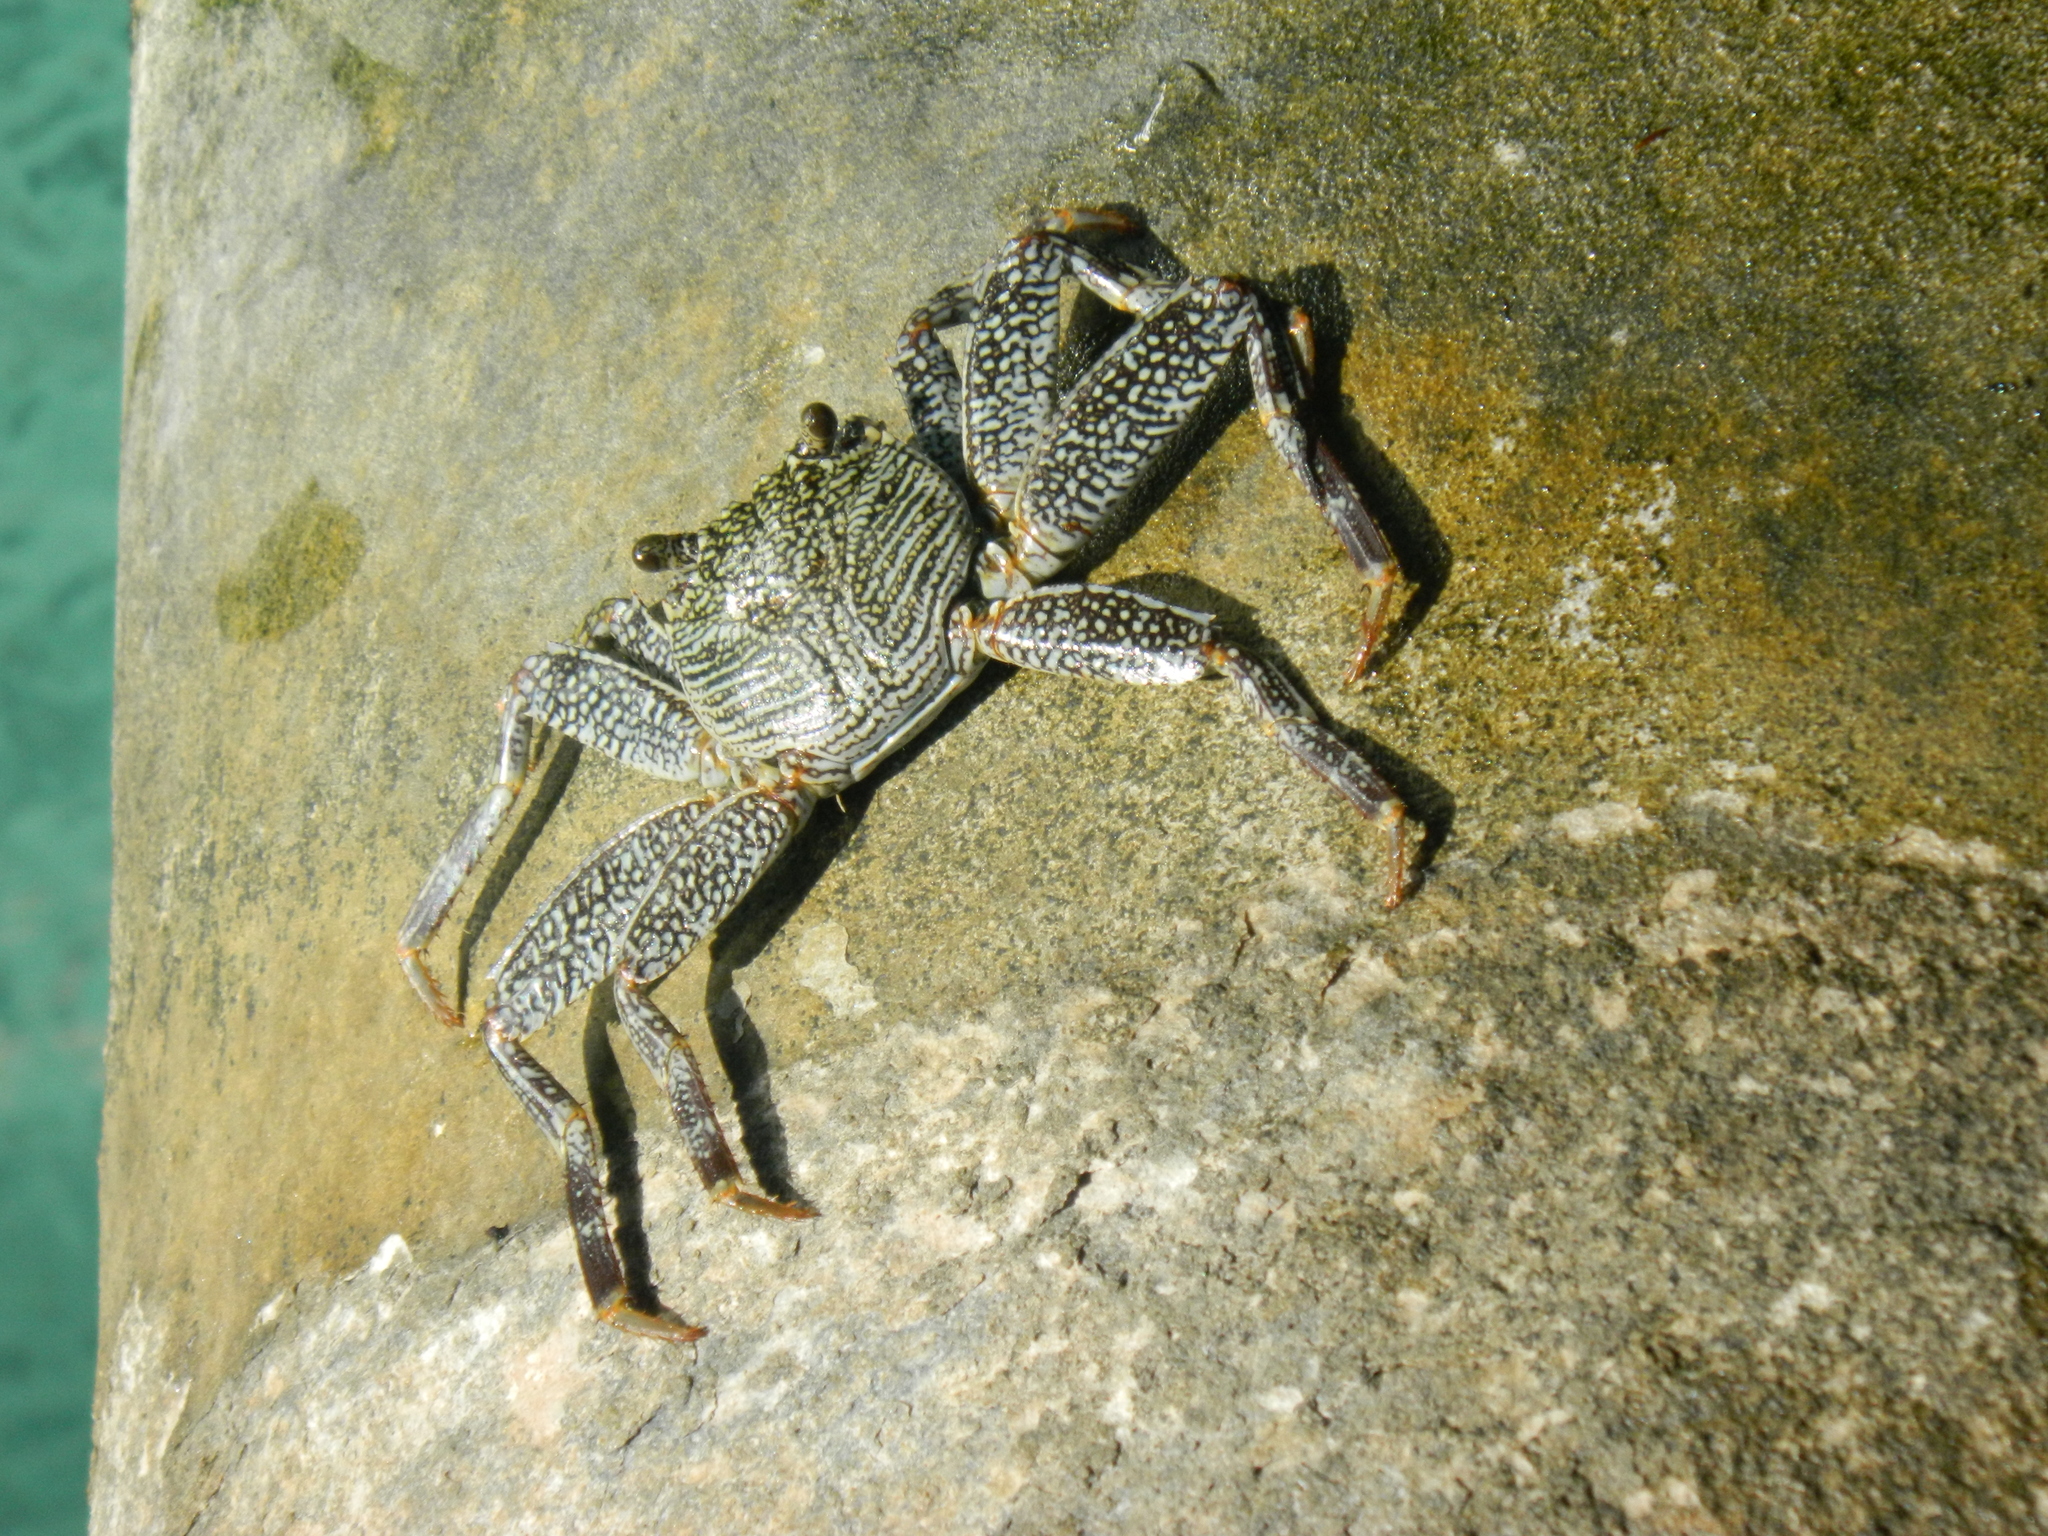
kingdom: Animalia
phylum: Arthropoda
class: Malacostraca
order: Decapoda
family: Grapsidae
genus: Grapsus
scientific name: Grapsus tenuicrustatus
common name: Natal lightfoot crab
